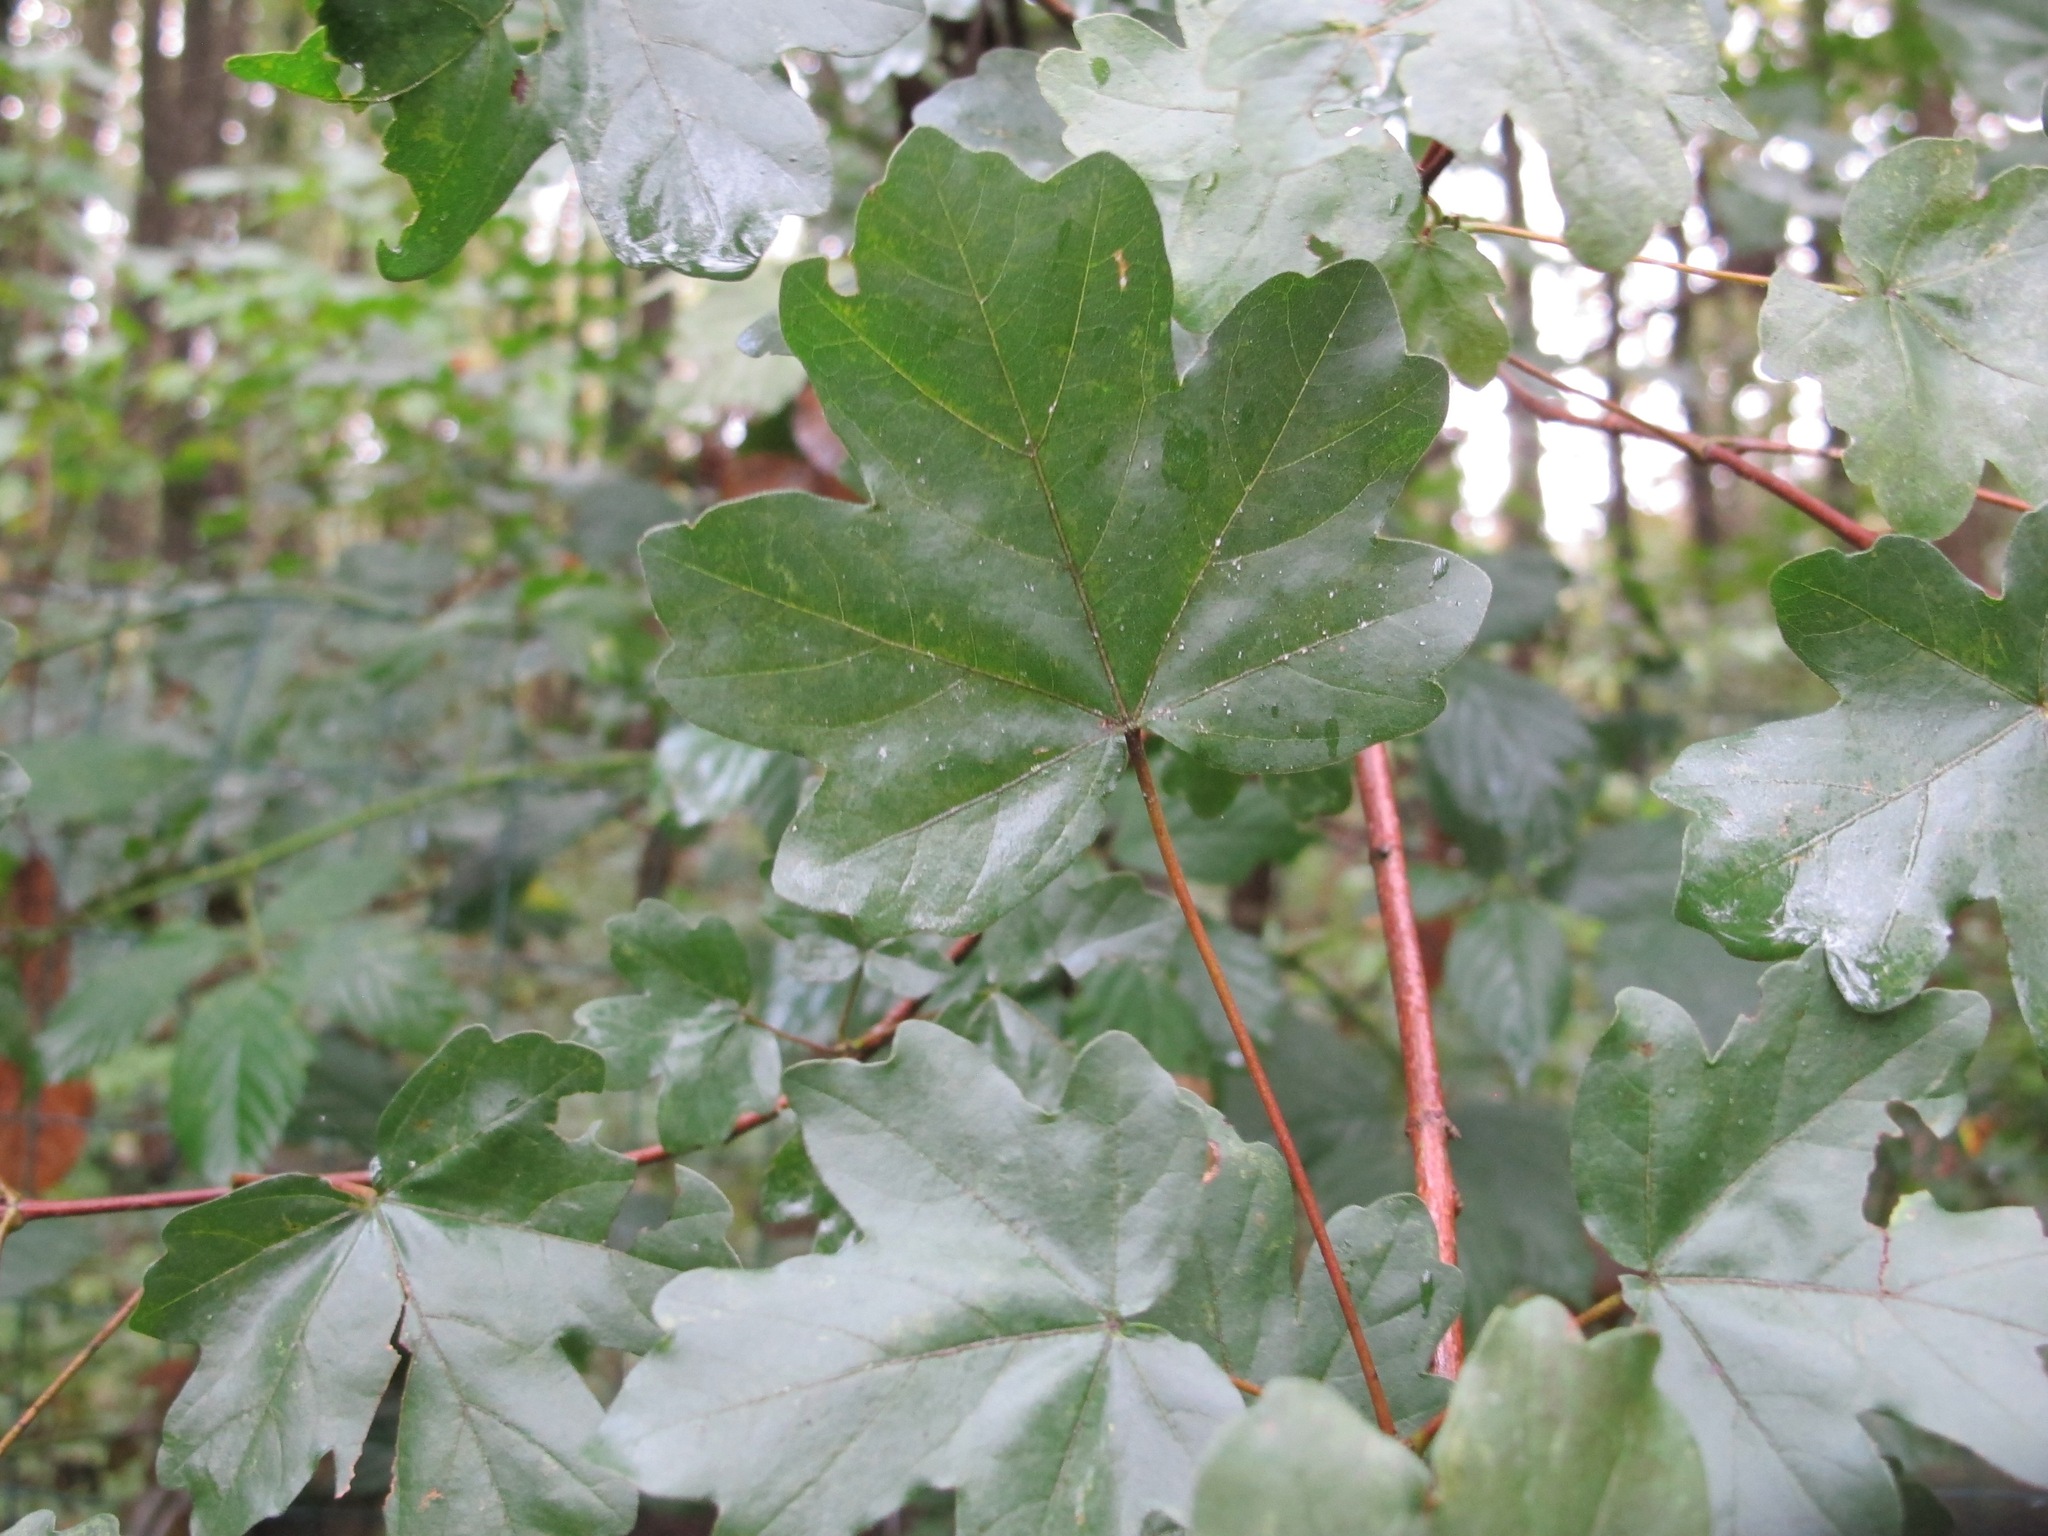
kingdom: Plantae
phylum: Tracheophyta
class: Magnoliopsida
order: Sapindales
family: Sapindaceae
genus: Acer
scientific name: Acer campestre
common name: Field maple
